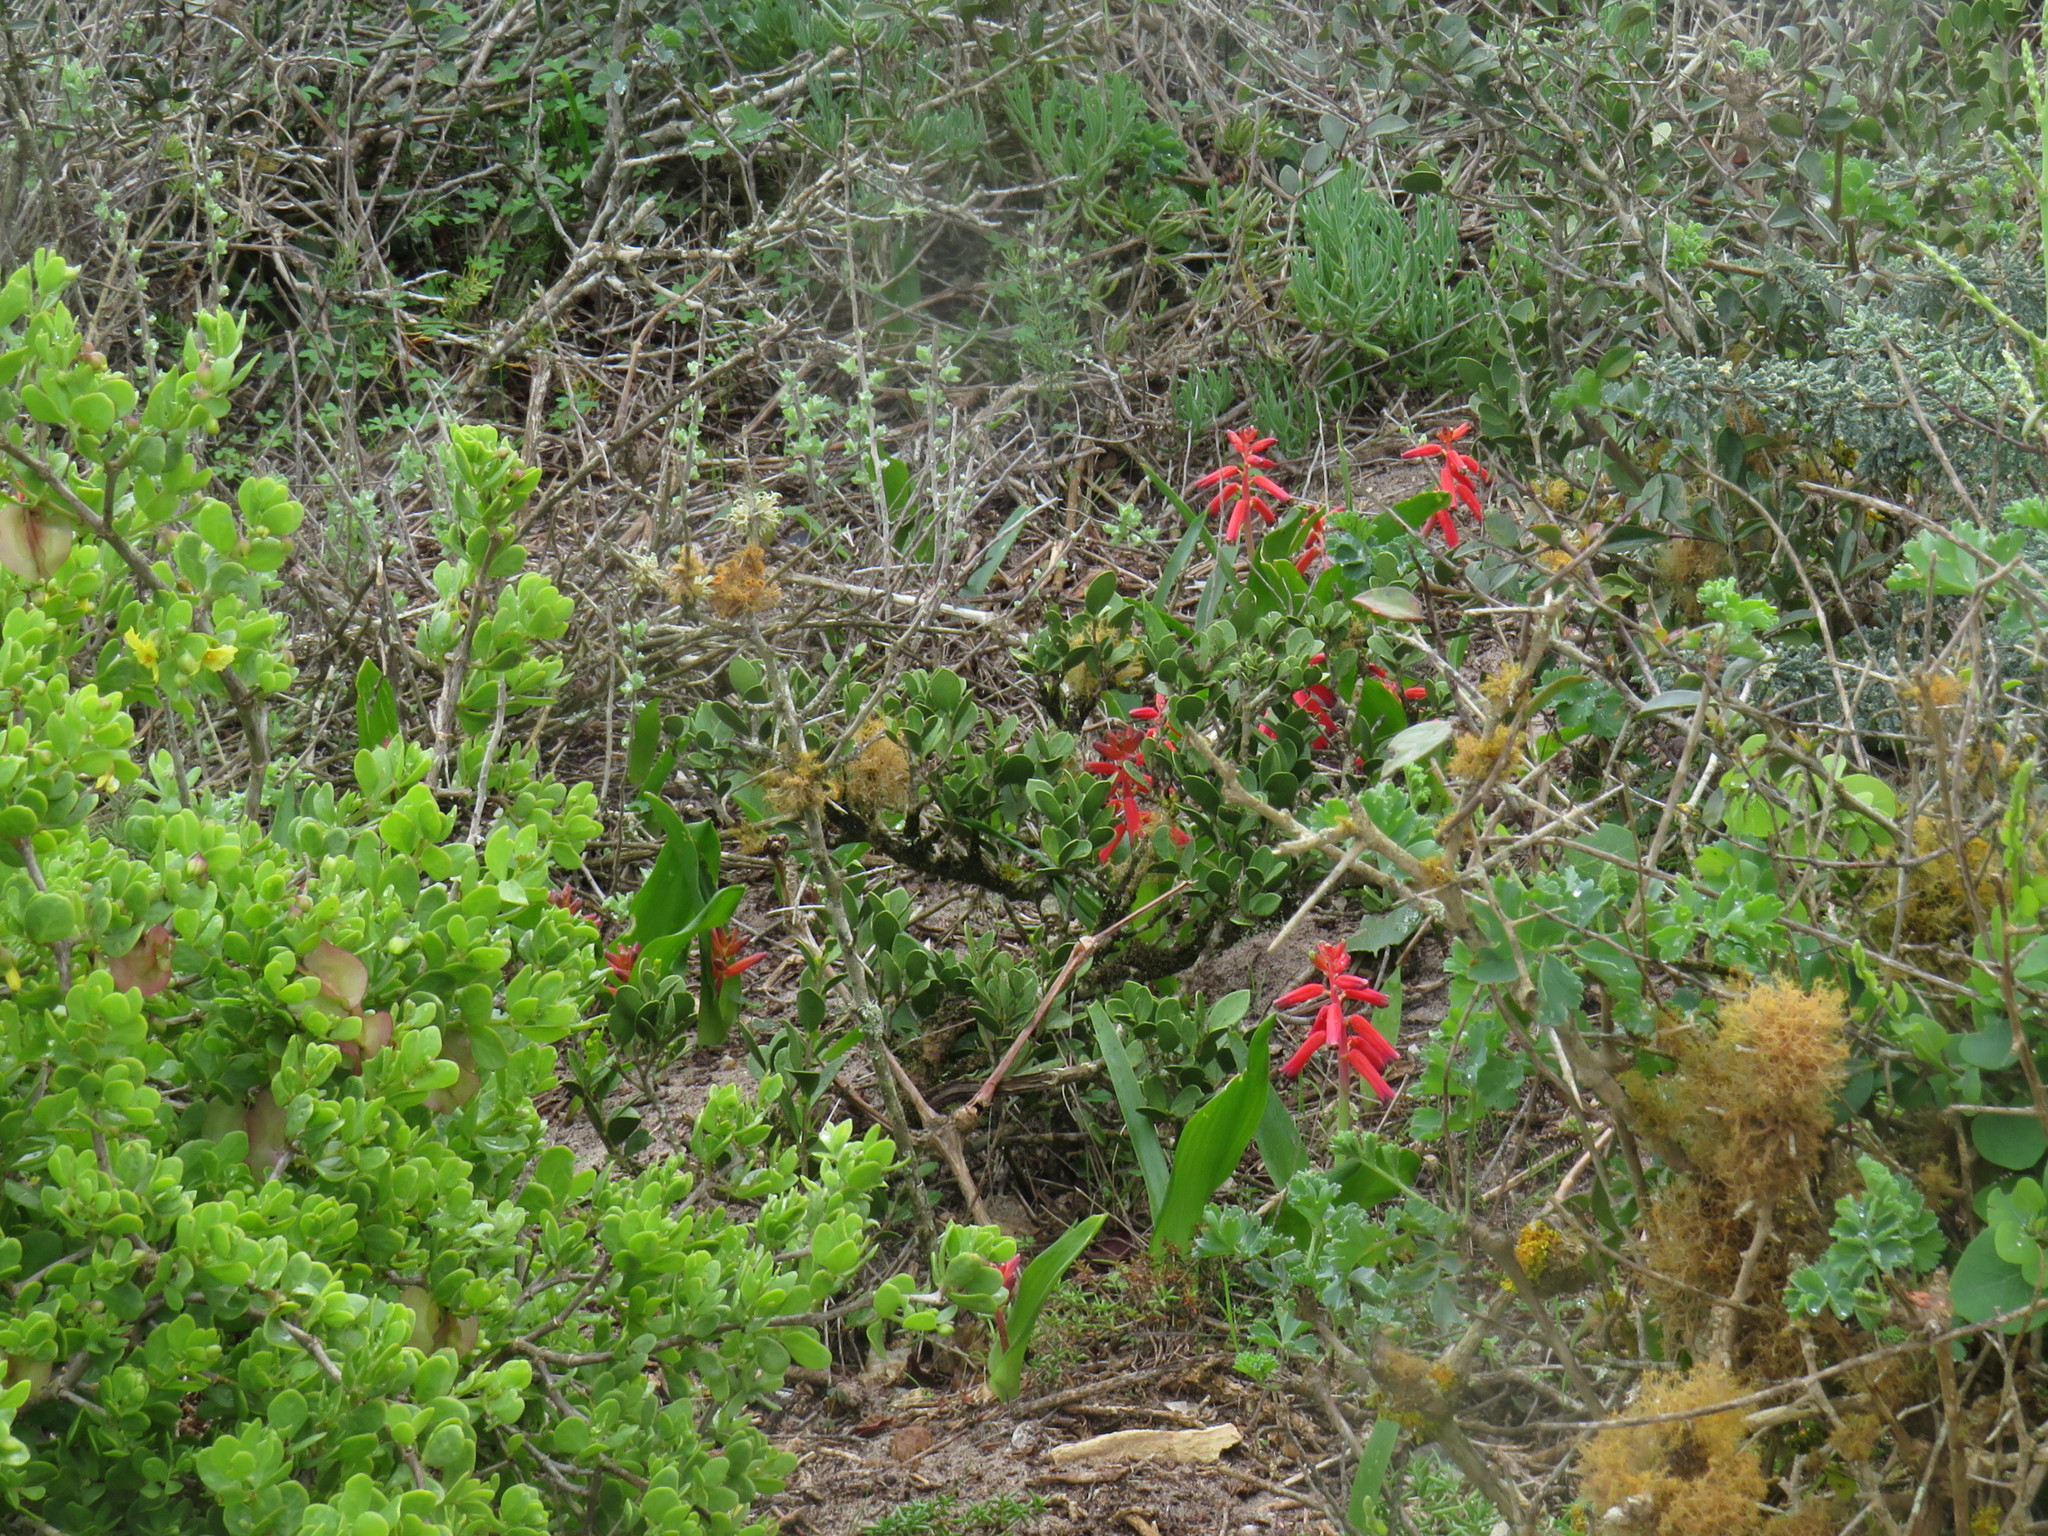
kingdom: Plantae
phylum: Tracheophyta
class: Liliopsida
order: Asparagales
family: Asparagaceae
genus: Lachenalia
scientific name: Lachenalia bulbifera
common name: Red lachenalia
